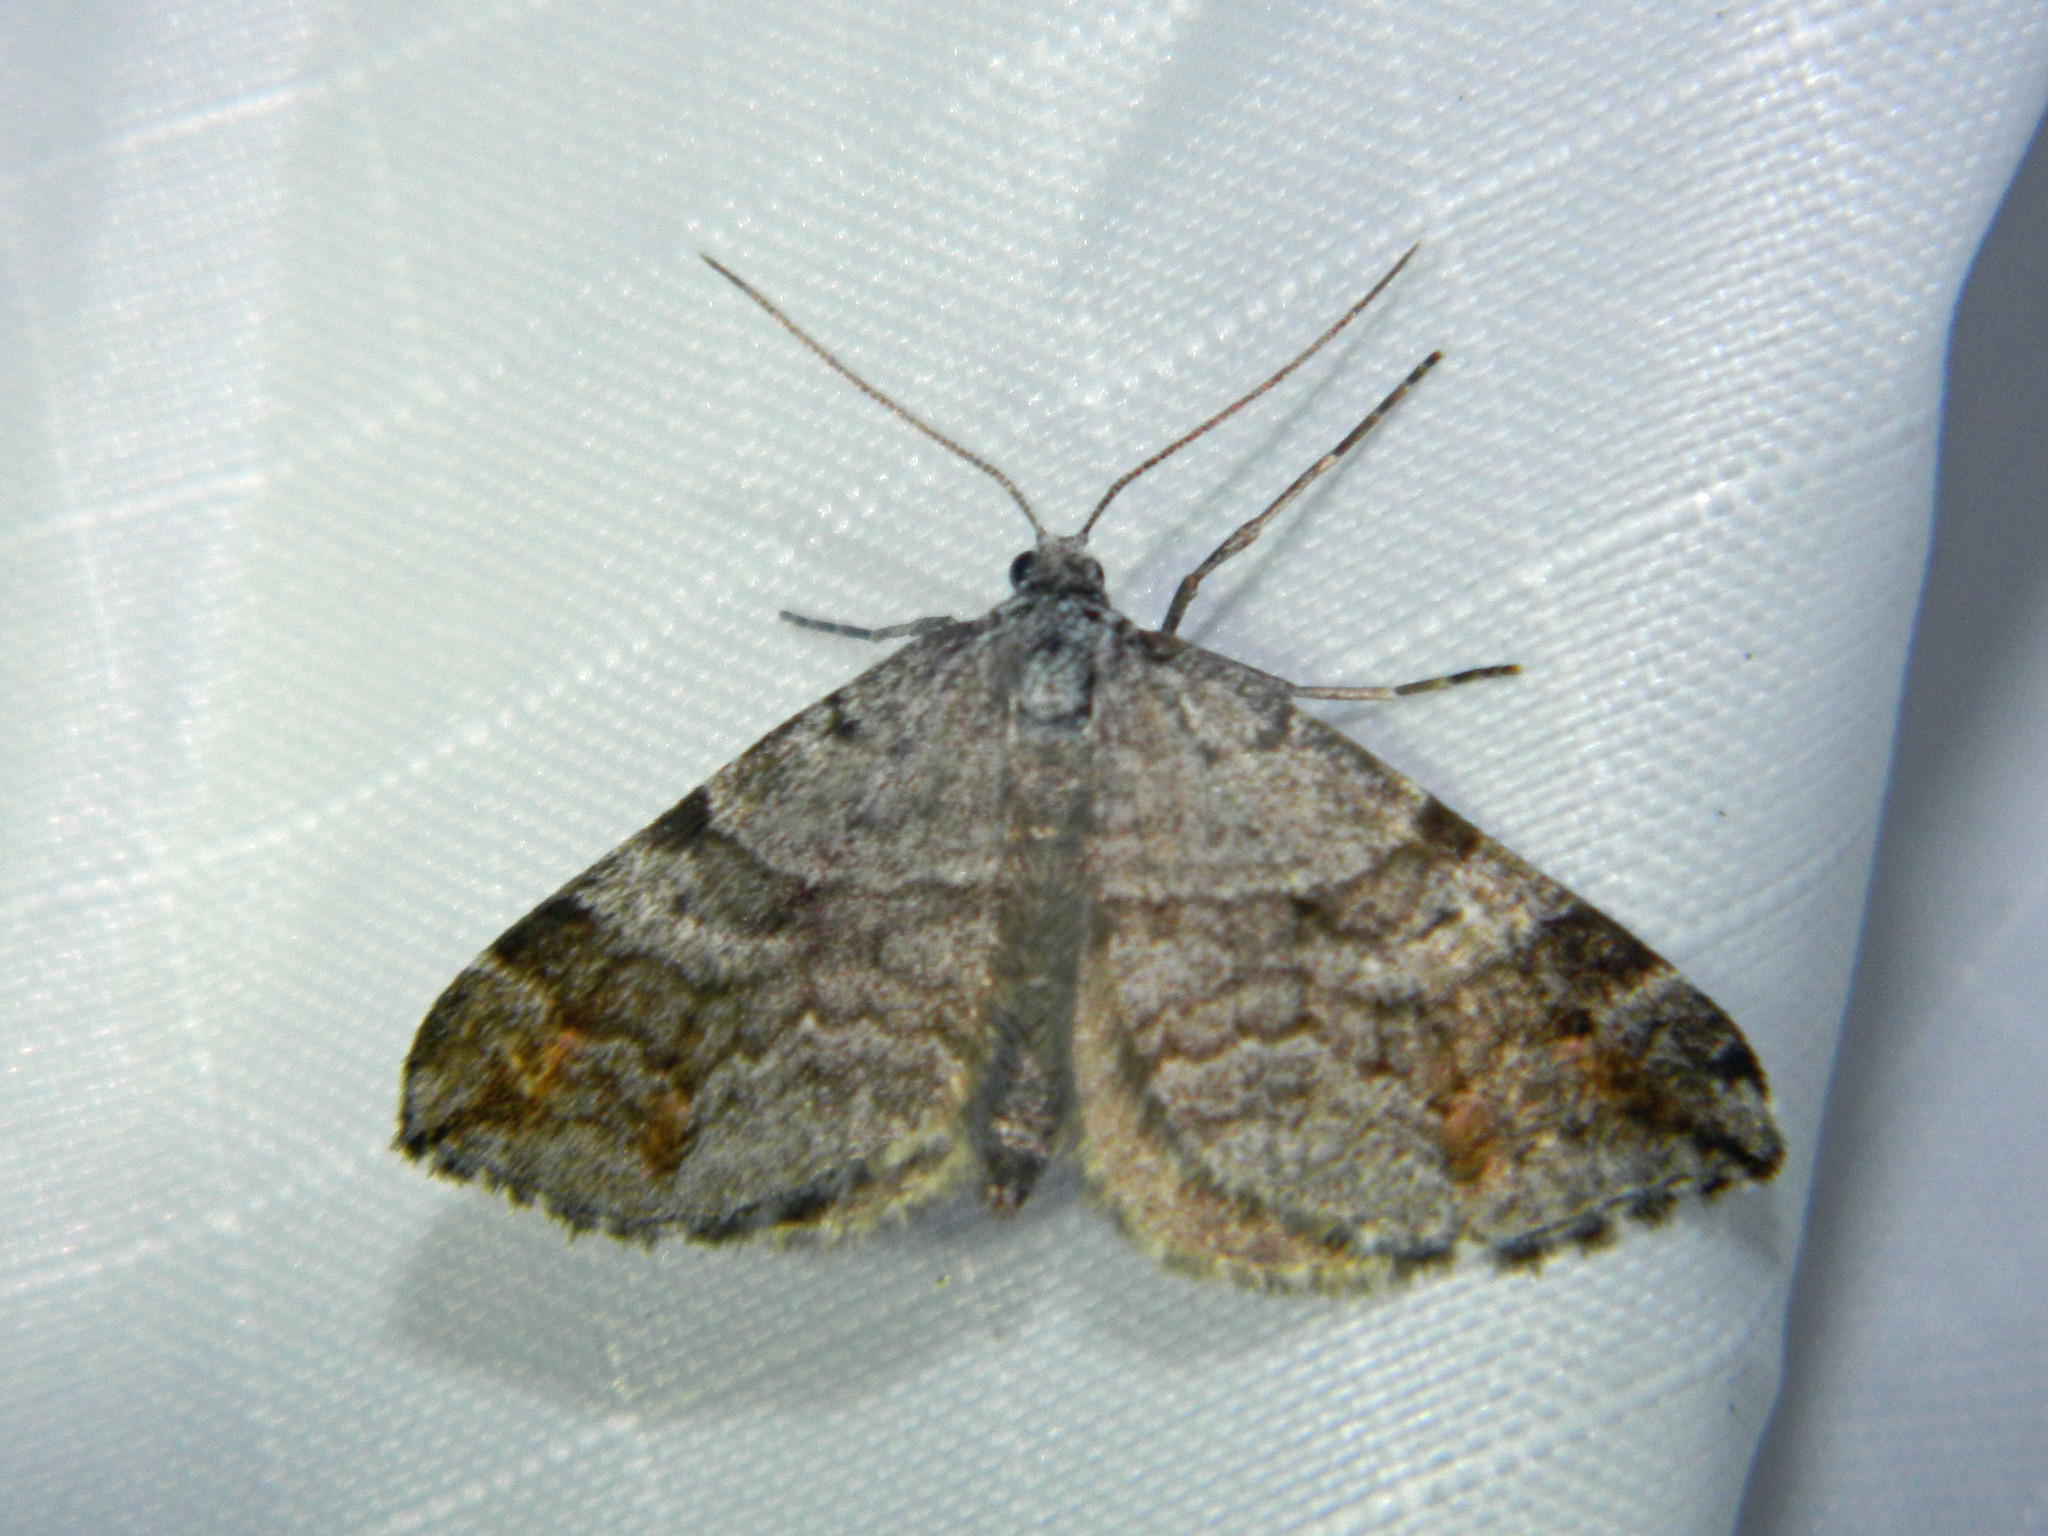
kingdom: Animalia
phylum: Arthropoda
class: Insecta
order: Lepidoptera
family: Geometridae
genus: Carsia
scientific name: Carsia sororiata
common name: Manchester treble-bar
